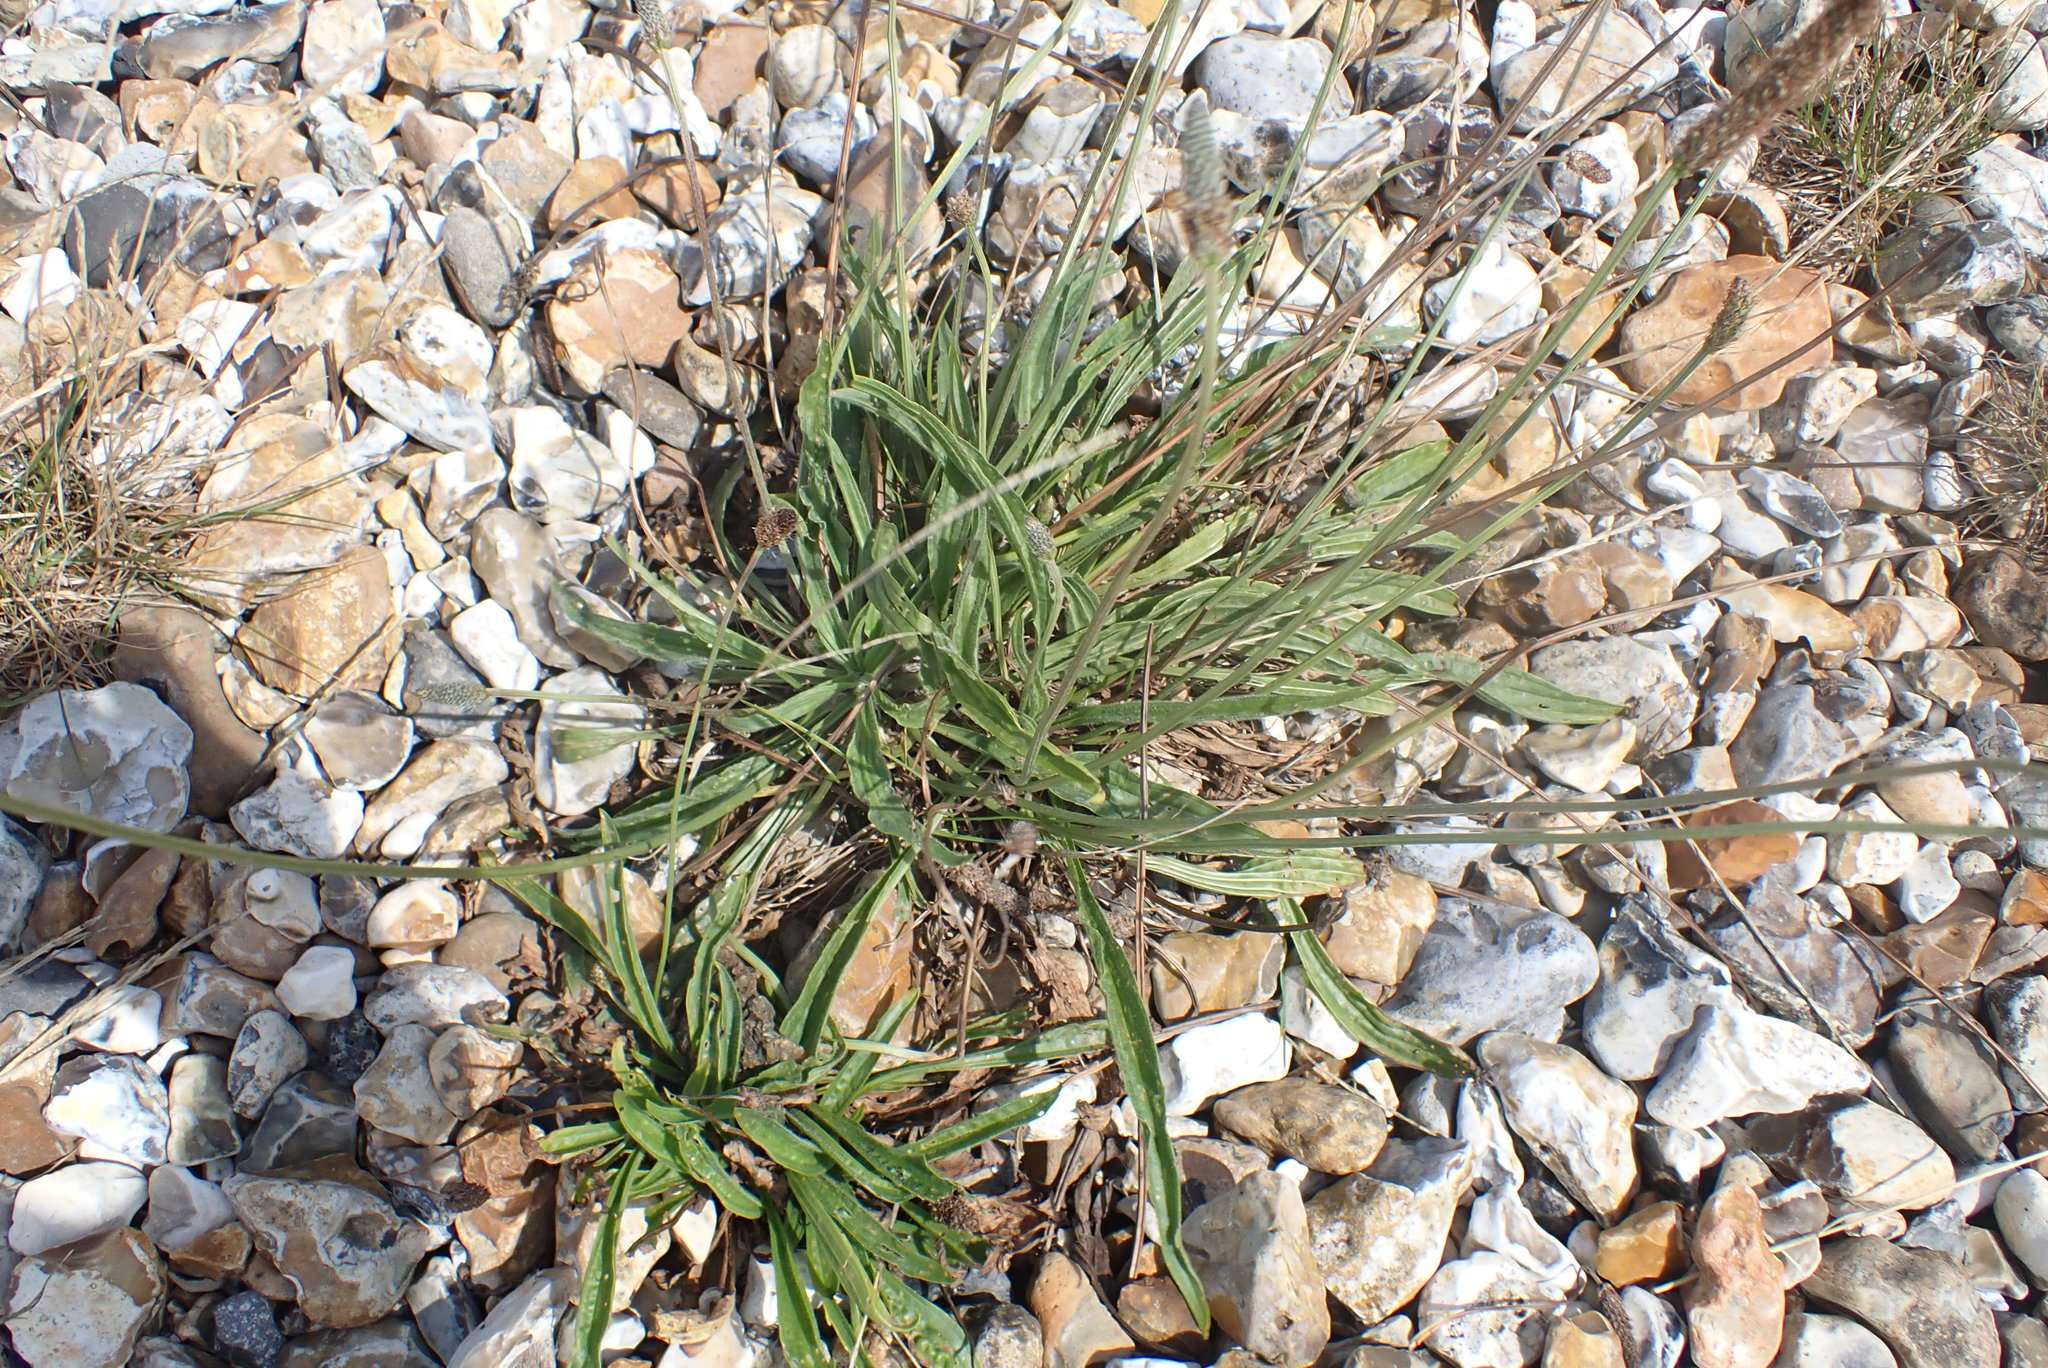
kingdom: Plantae
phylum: Tracheophyta
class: Magnoliopsida
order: Lamiales
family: Plantaginaceae
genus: Plantago
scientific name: Plantago lanceolata
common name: Ribwort plantain
